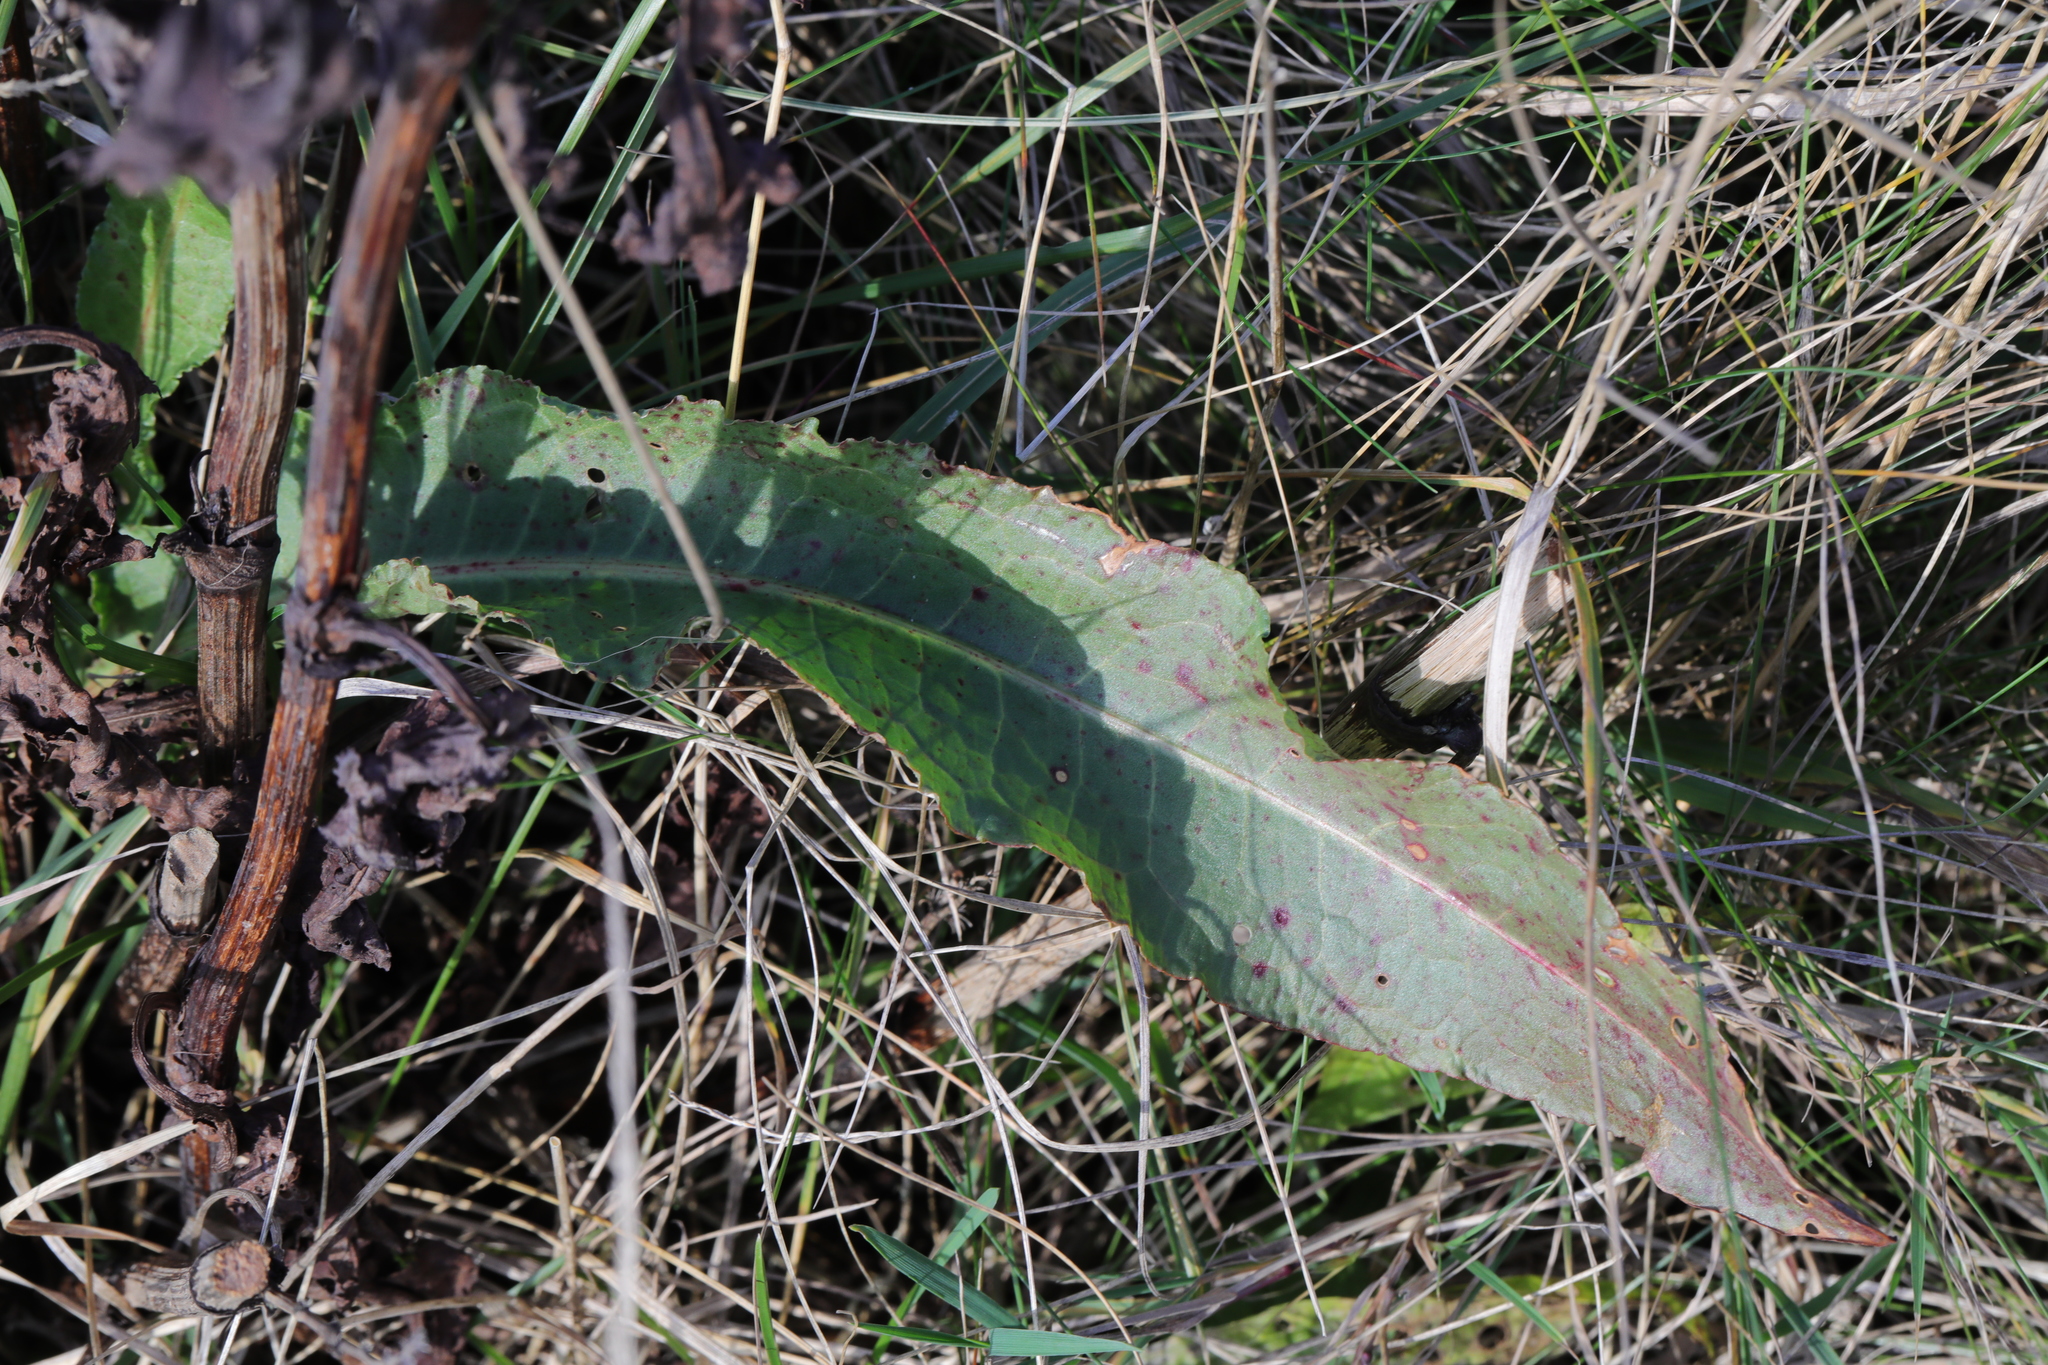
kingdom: Plantae
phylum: Tracheophyta
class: Magnoliopsida
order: Caryophyllales
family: Polygonaceae
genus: Rumex
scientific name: Rumex crispus
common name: Curled dock
